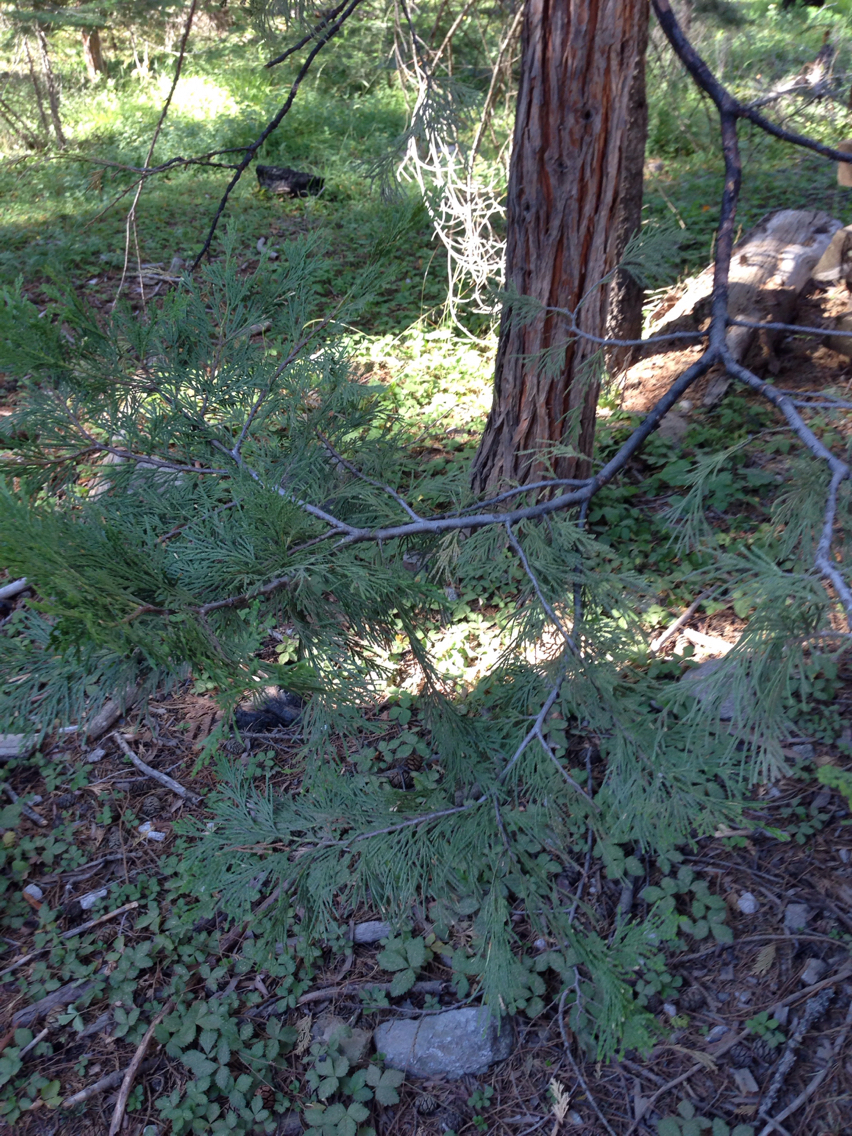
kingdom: Plantae
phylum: Tracheophyta
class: Pinopsida
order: Pinales
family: Cupressaceae
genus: Calocedrus
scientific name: Calocedrus decurrens
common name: Californian incense-cedar
